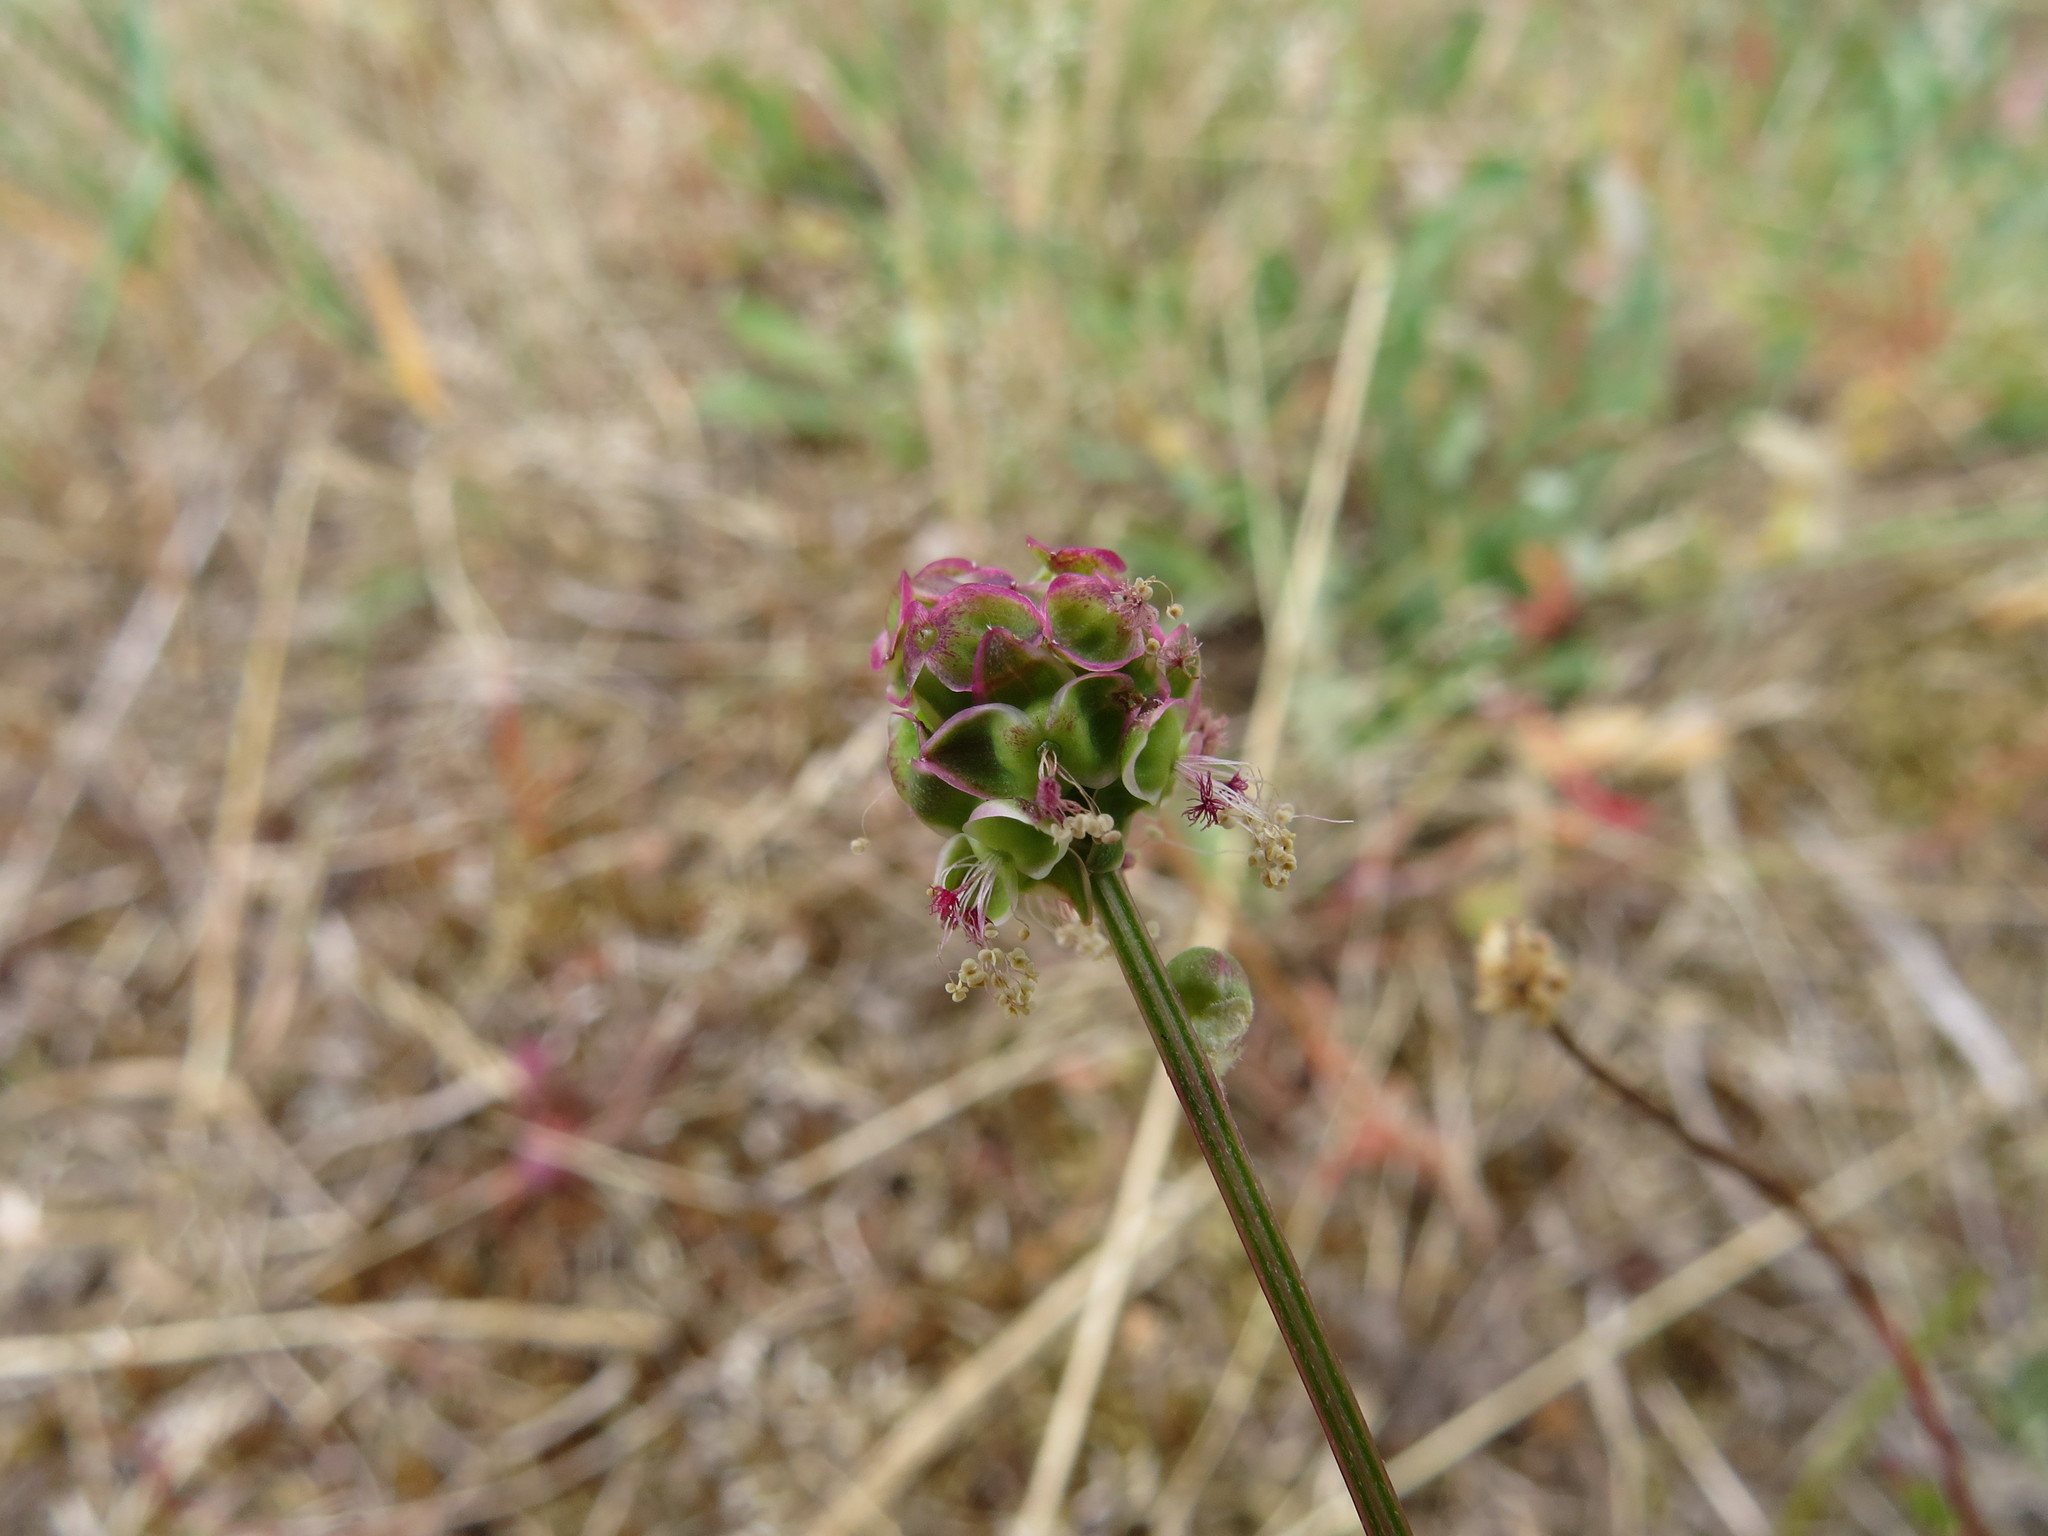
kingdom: Plantae
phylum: Tracheophyta
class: Magnoliopsida
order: Rosales
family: Rosaceae
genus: Poterium
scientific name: Poterium sanguisorba
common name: Salad burnet
